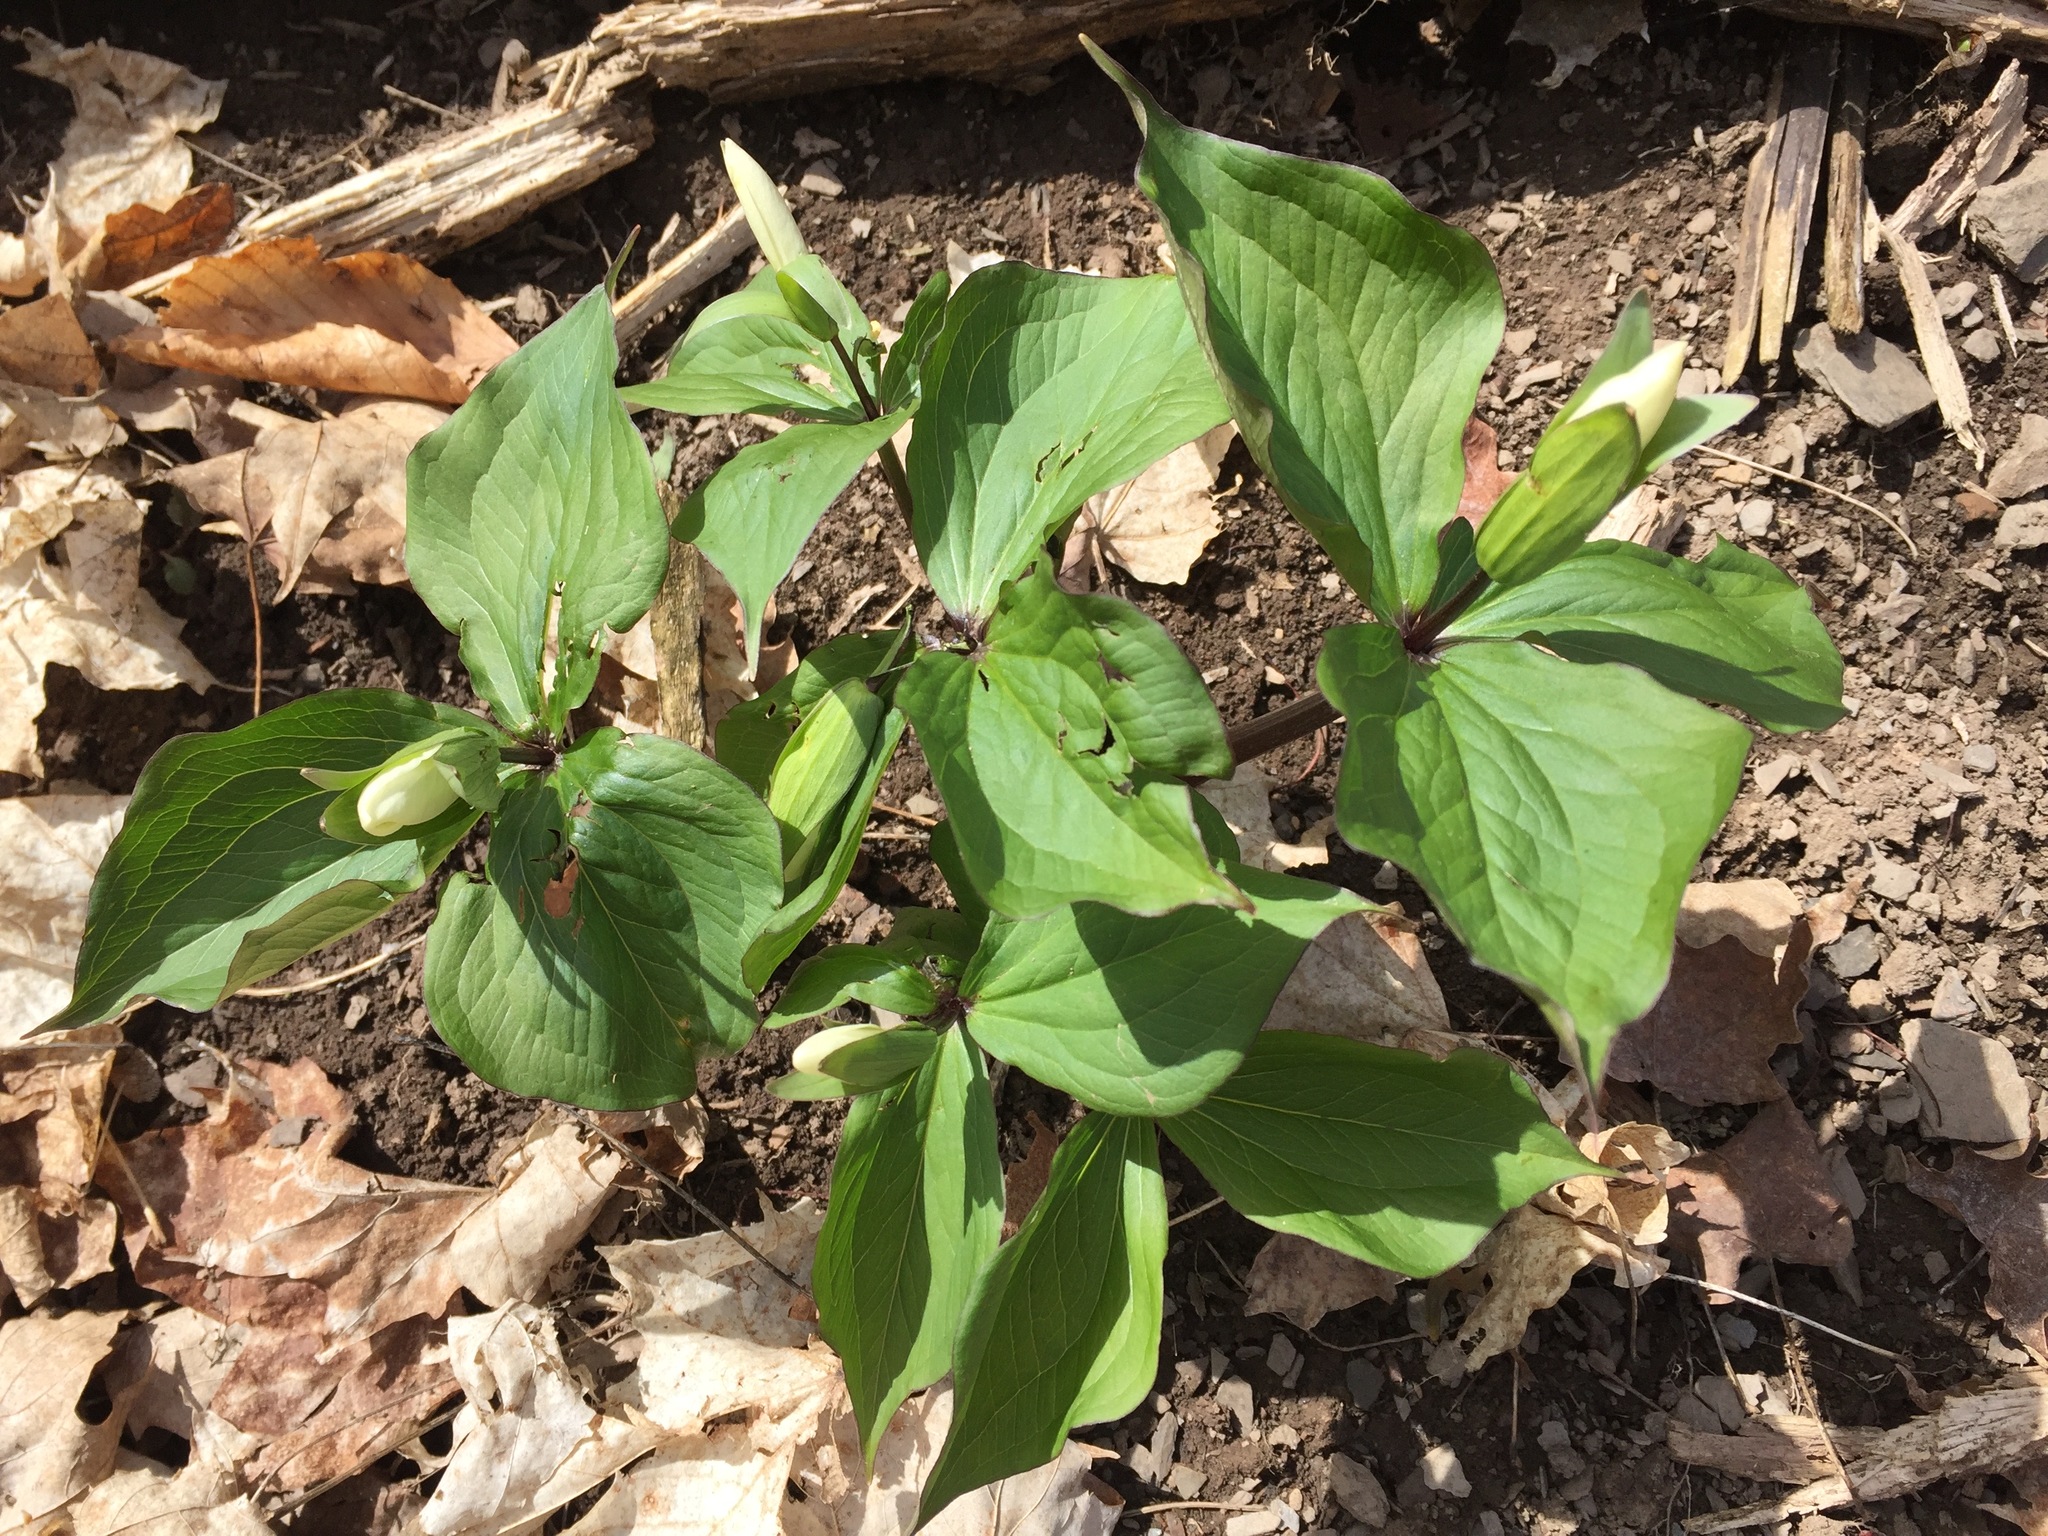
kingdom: Plantae
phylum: Tracheophyta
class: Liliopsida
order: Liliales
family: Melanthiaceae
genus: Trillium
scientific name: Trillium grandiflorum
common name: Great white trillium
